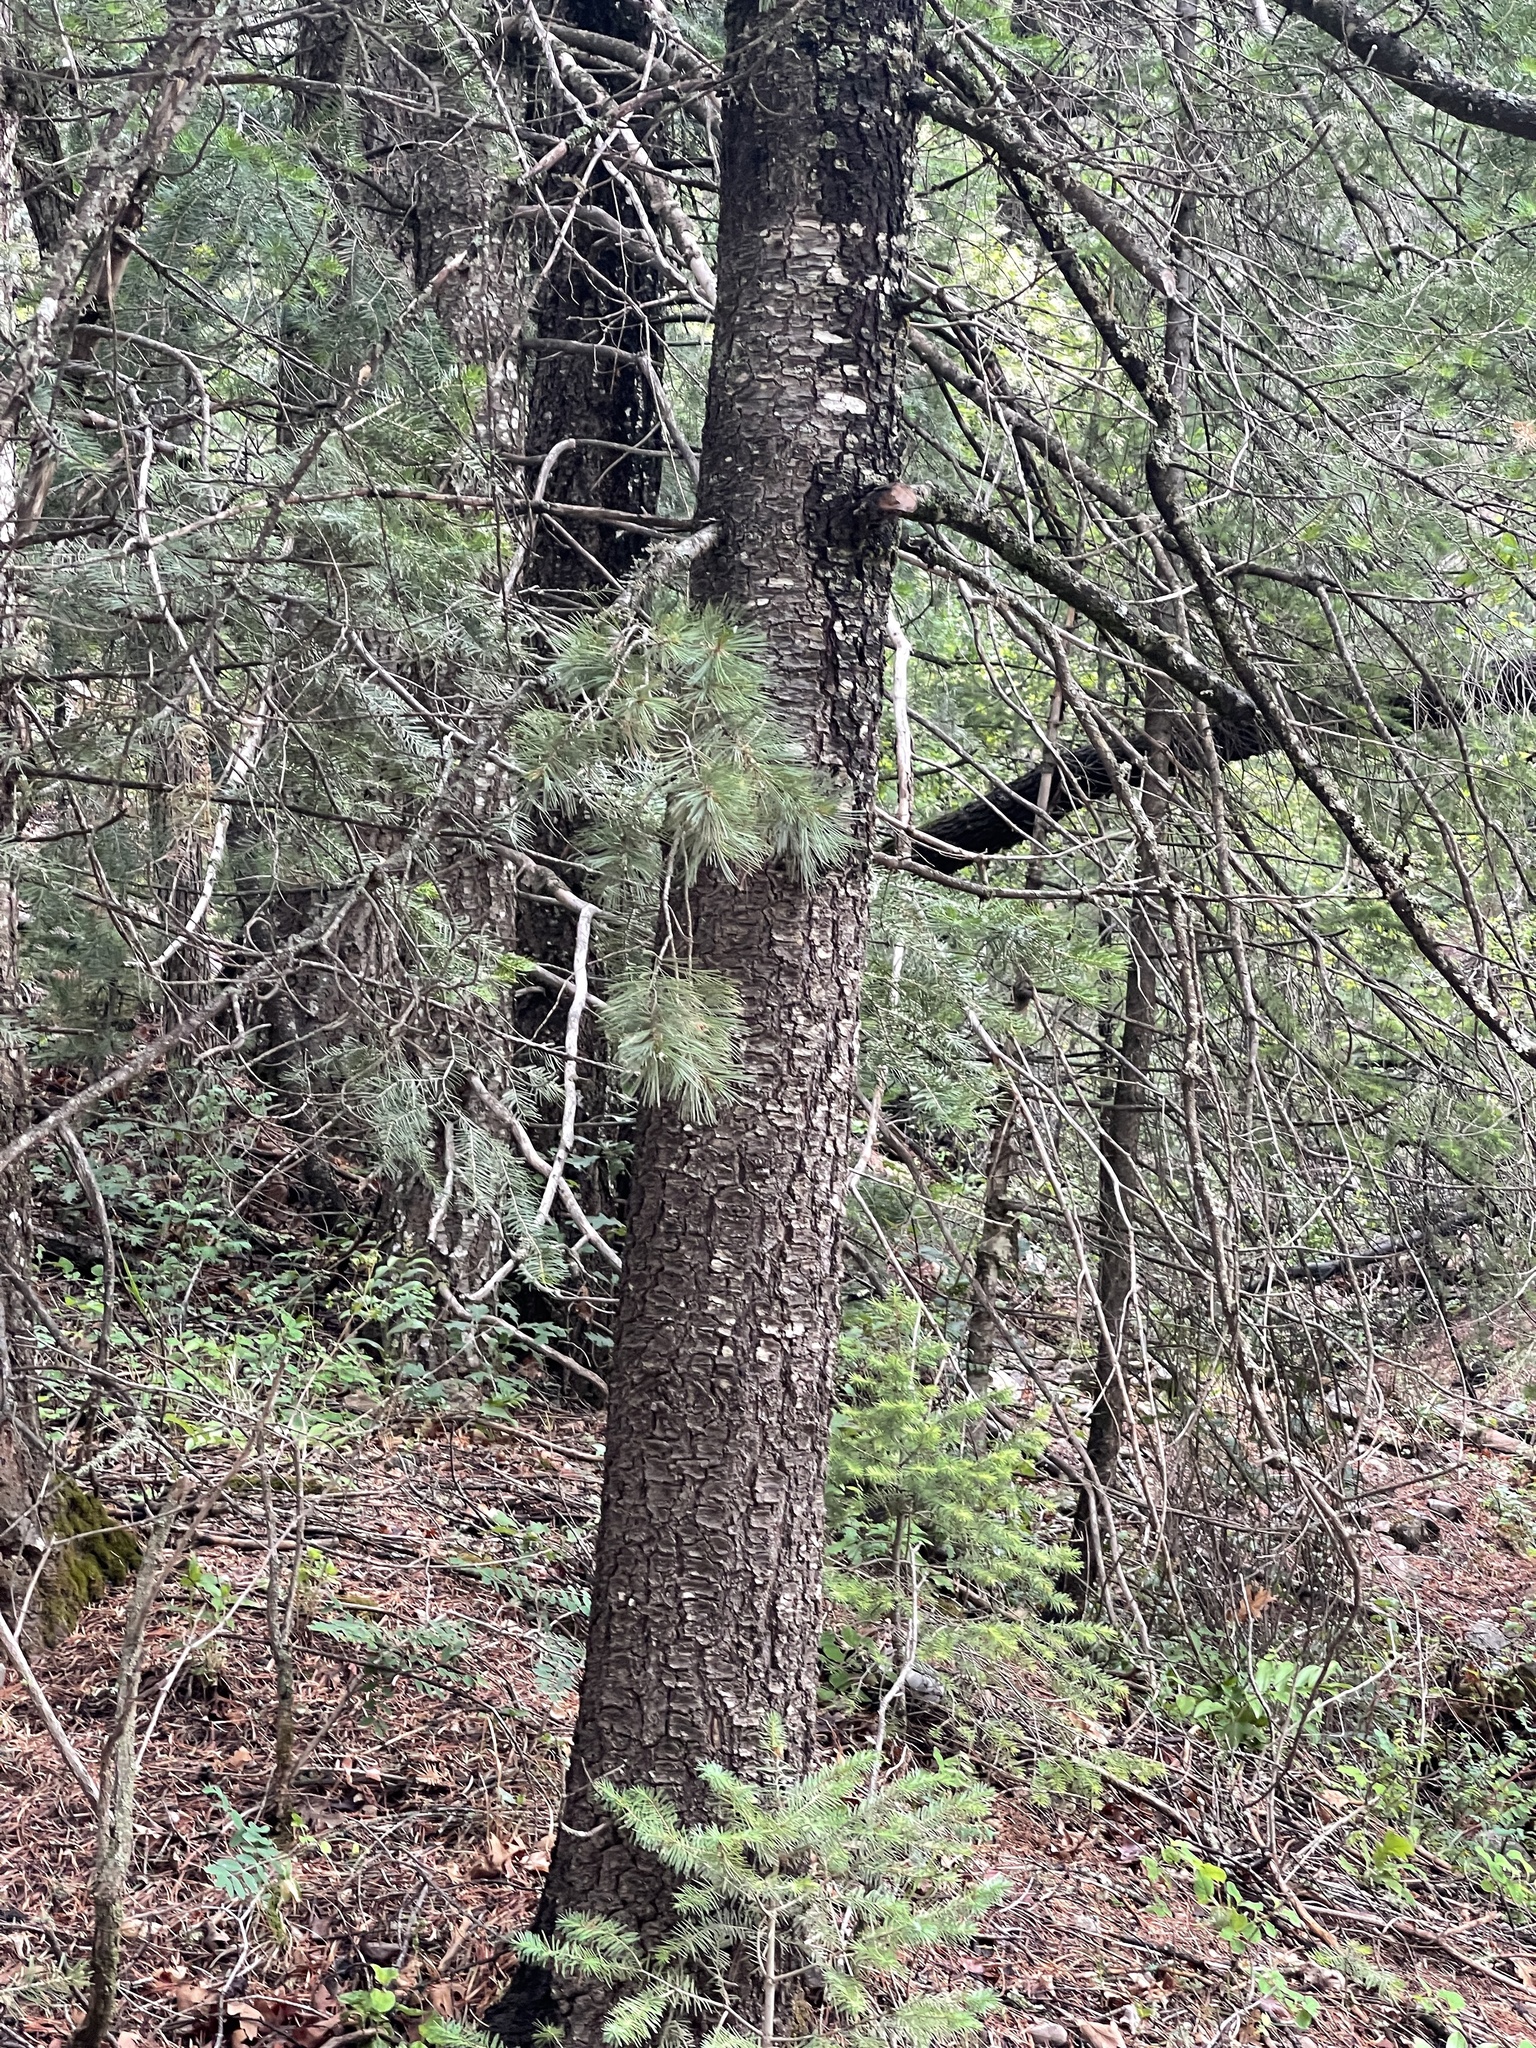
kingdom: Plantae
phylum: Tracheophyta
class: Pinopsida
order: Pinales
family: Pinaceae
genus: Pinus
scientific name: Pinus strobiformis
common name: Southwestern white pine
